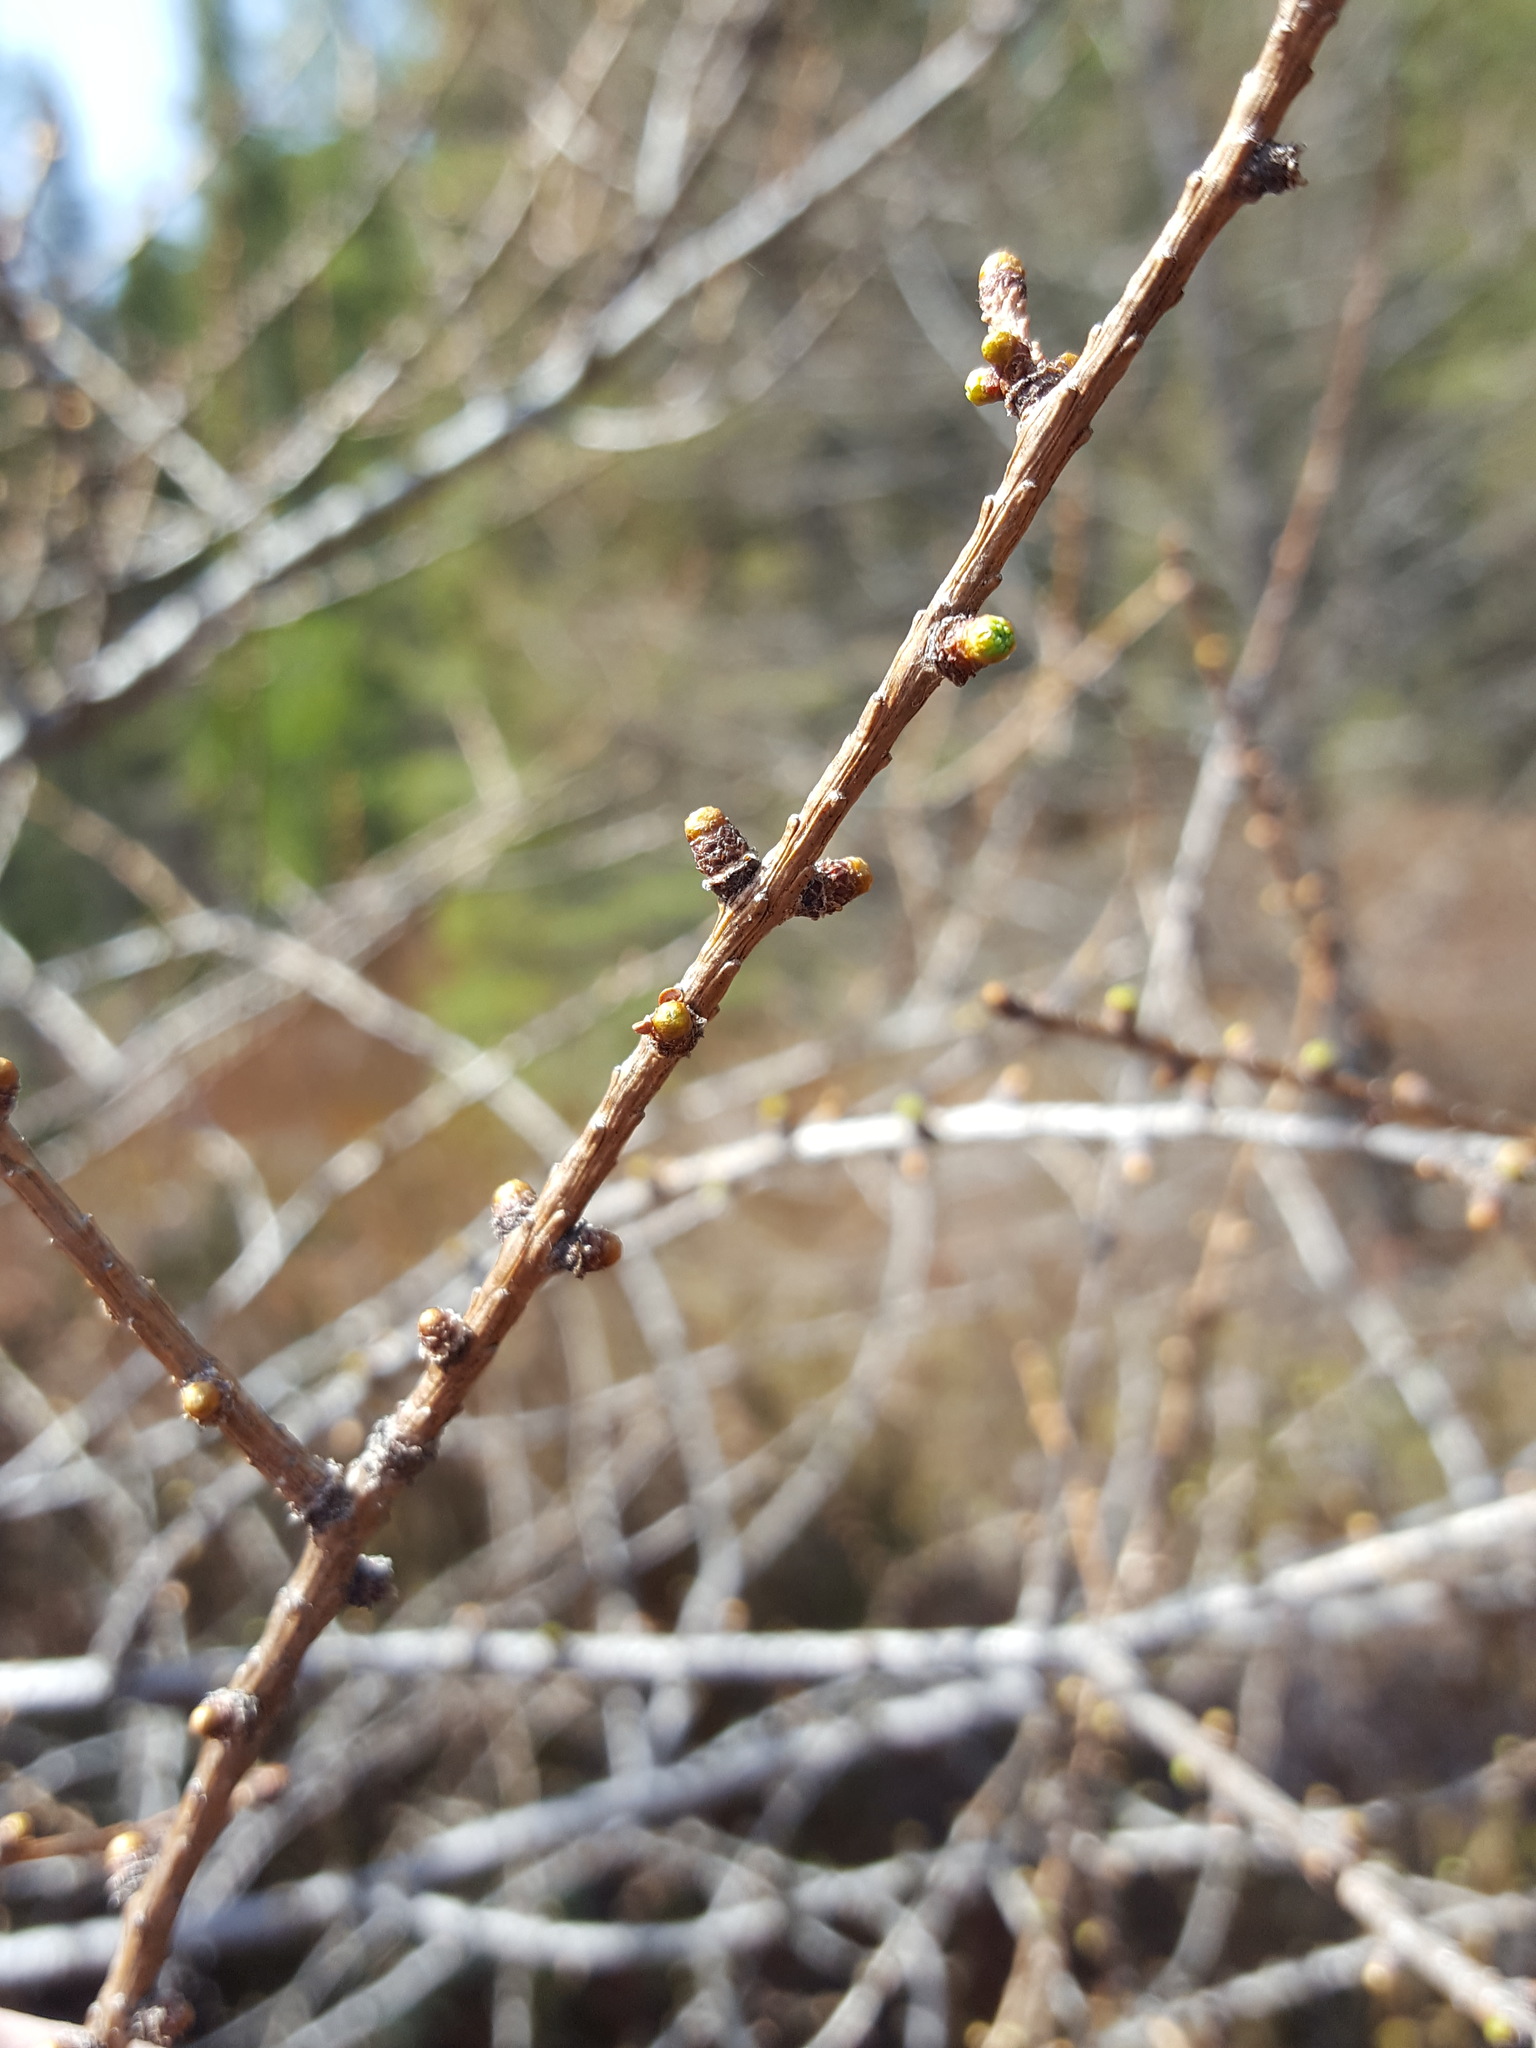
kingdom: Plantae
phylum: Tracheophyta
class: Pinopsida
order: Pinales
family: Pinaceae
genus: Larix
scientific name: Larix laricina
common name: American larch
